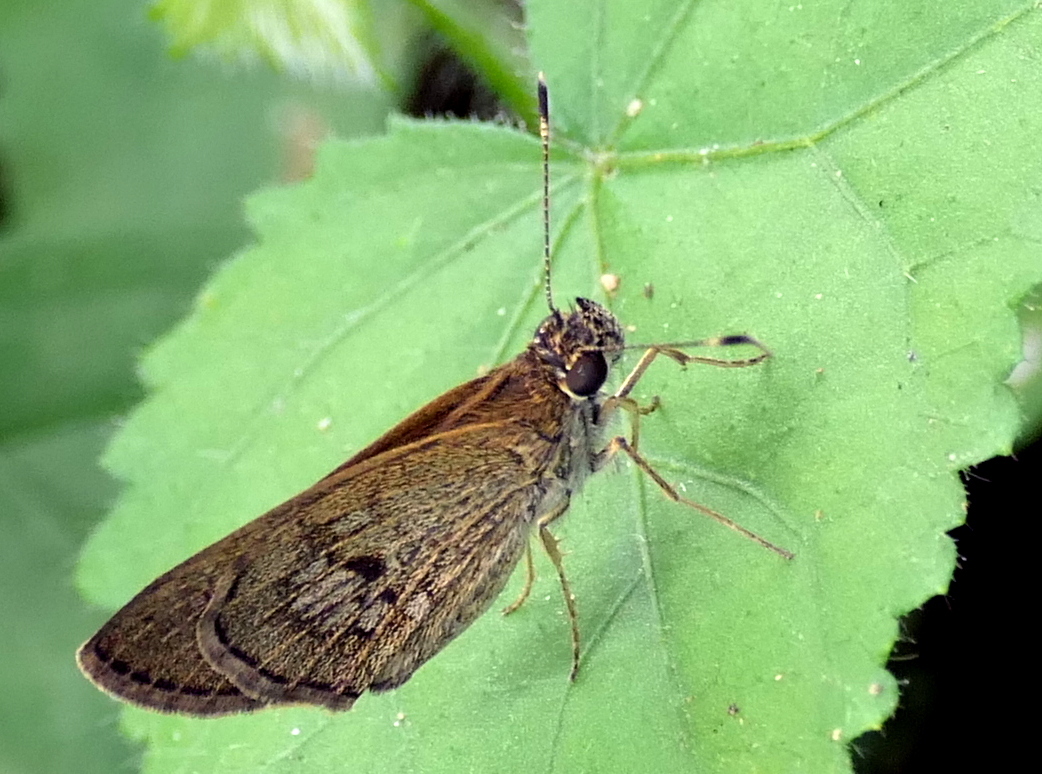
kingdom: Animalia
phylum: Arthropoda
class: Insecta
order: Lepidoptera
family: Hesperiidae
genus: Cymaenes
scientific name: Cymaenes tripunctata
